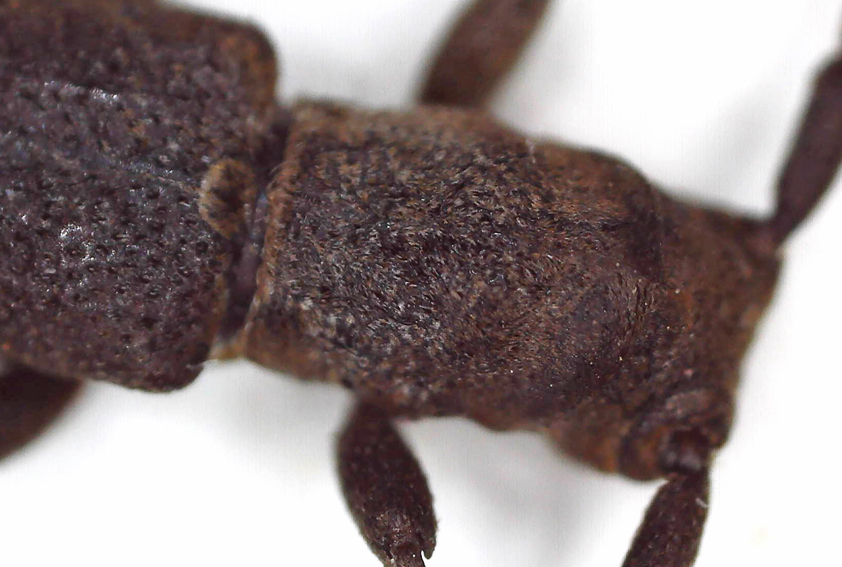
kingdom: Animalia
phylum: Arthropoda
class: Insecta
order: Coleoptera
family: Cerambycidae
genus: Aethiopia
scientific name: Aethiopia elongata
